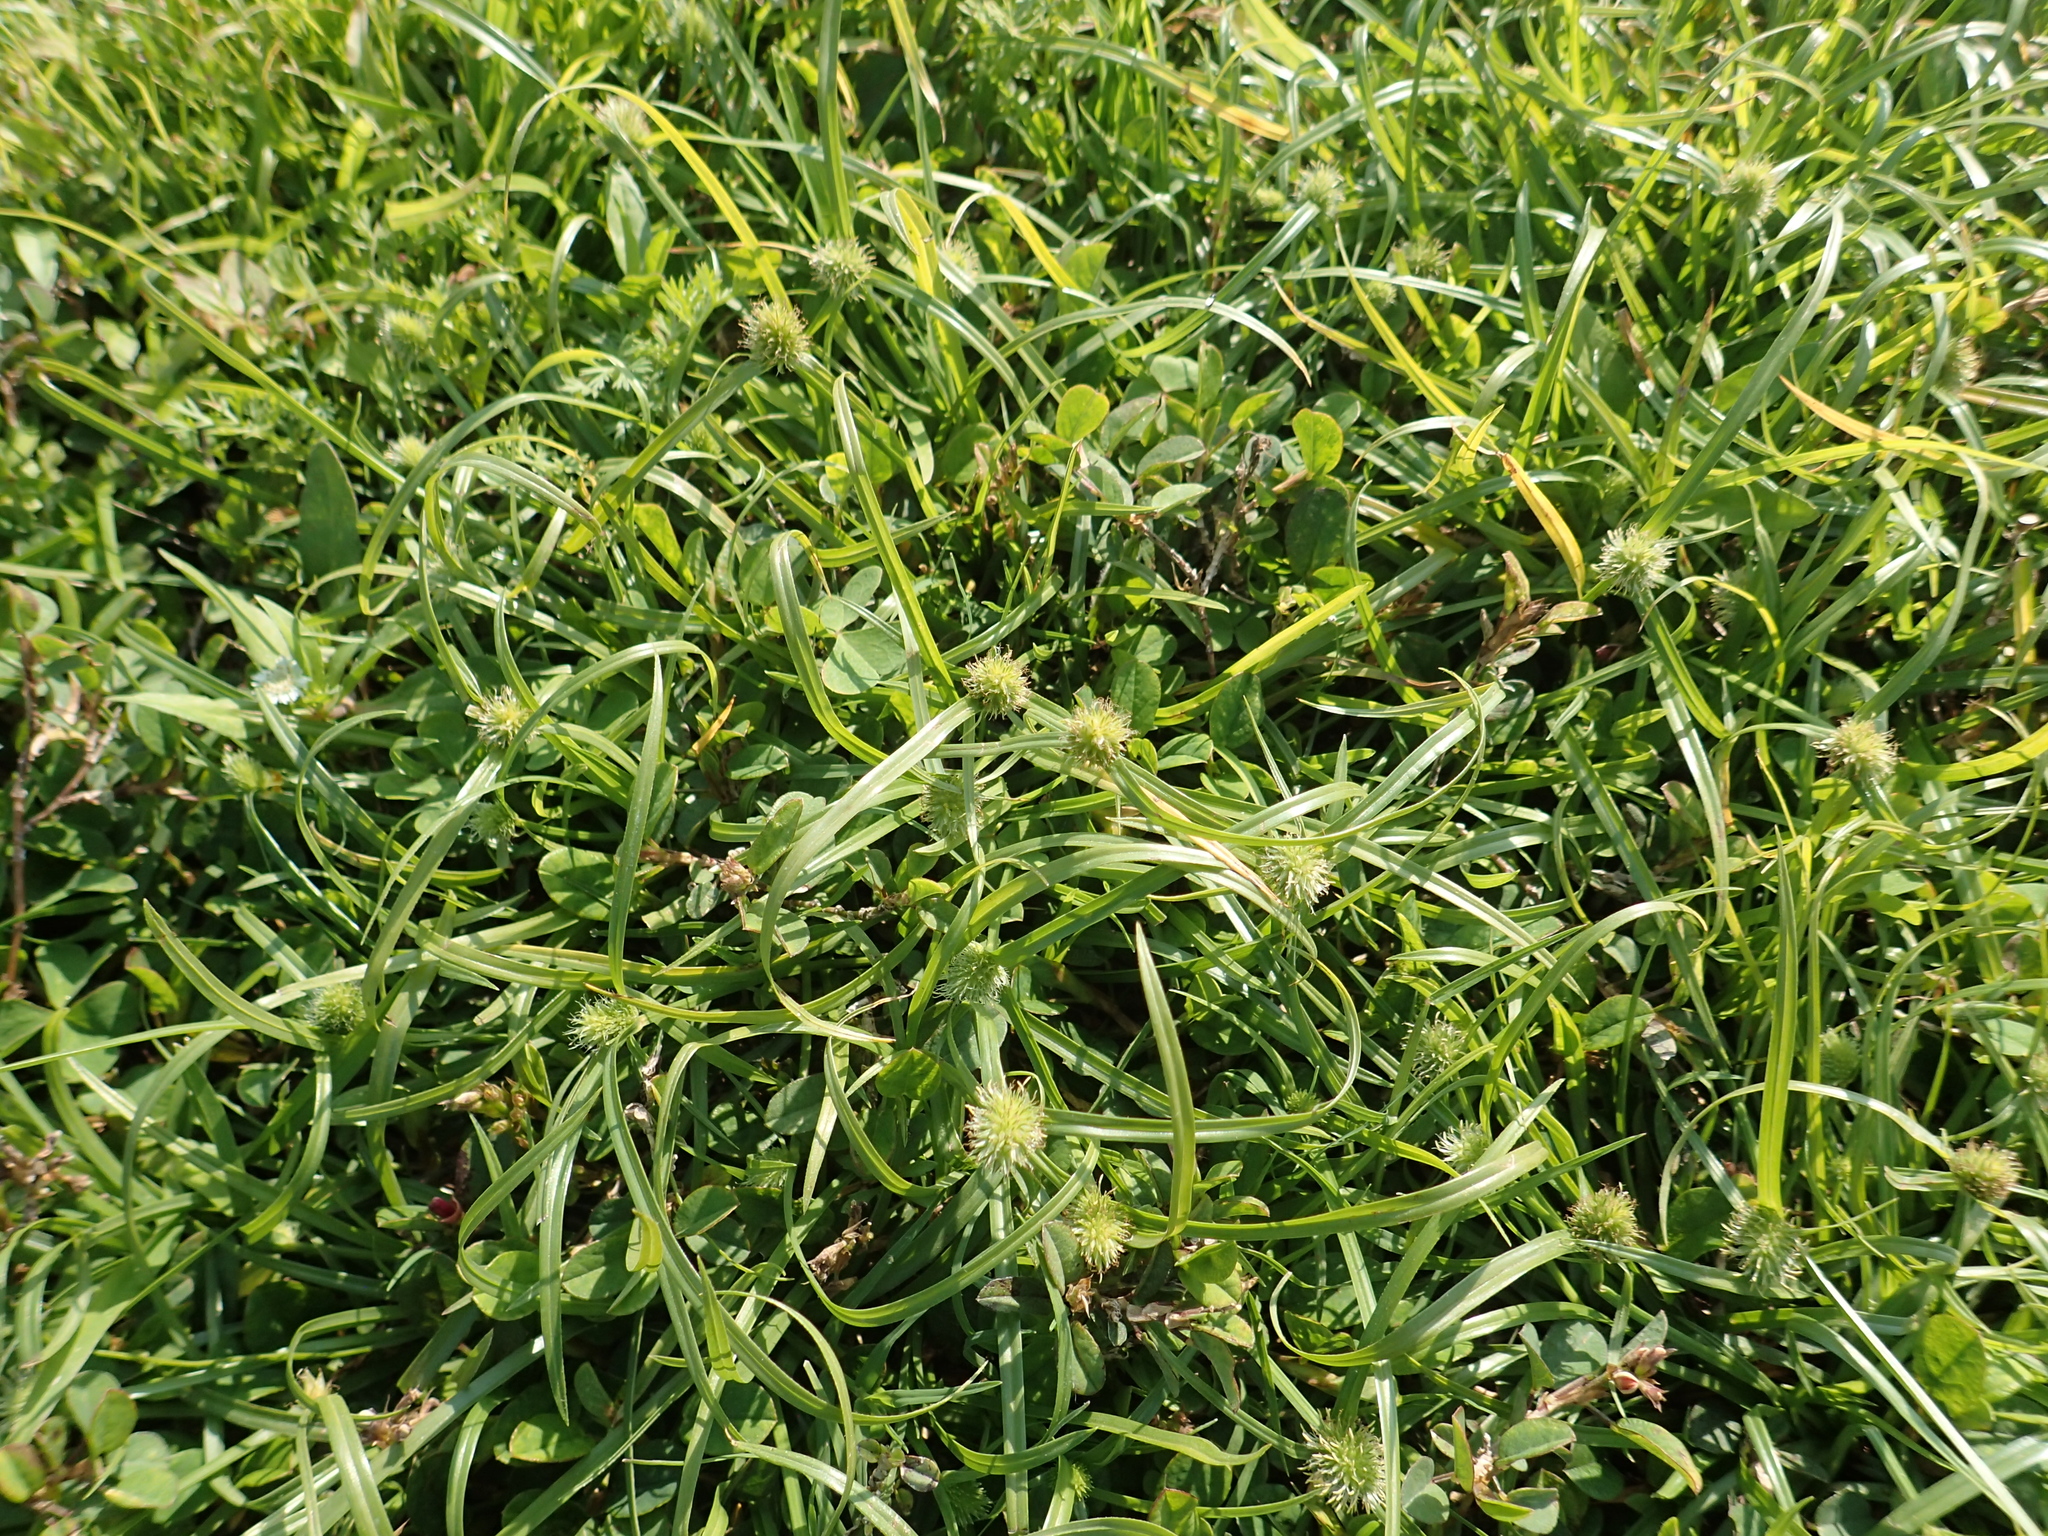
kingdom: Plantae
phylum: Tracheophyta
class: Liliopsida
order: Poales
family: Cyperaceae
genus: Cyperus
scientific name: Cyperus brevifolius
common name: Globe kyllinga
